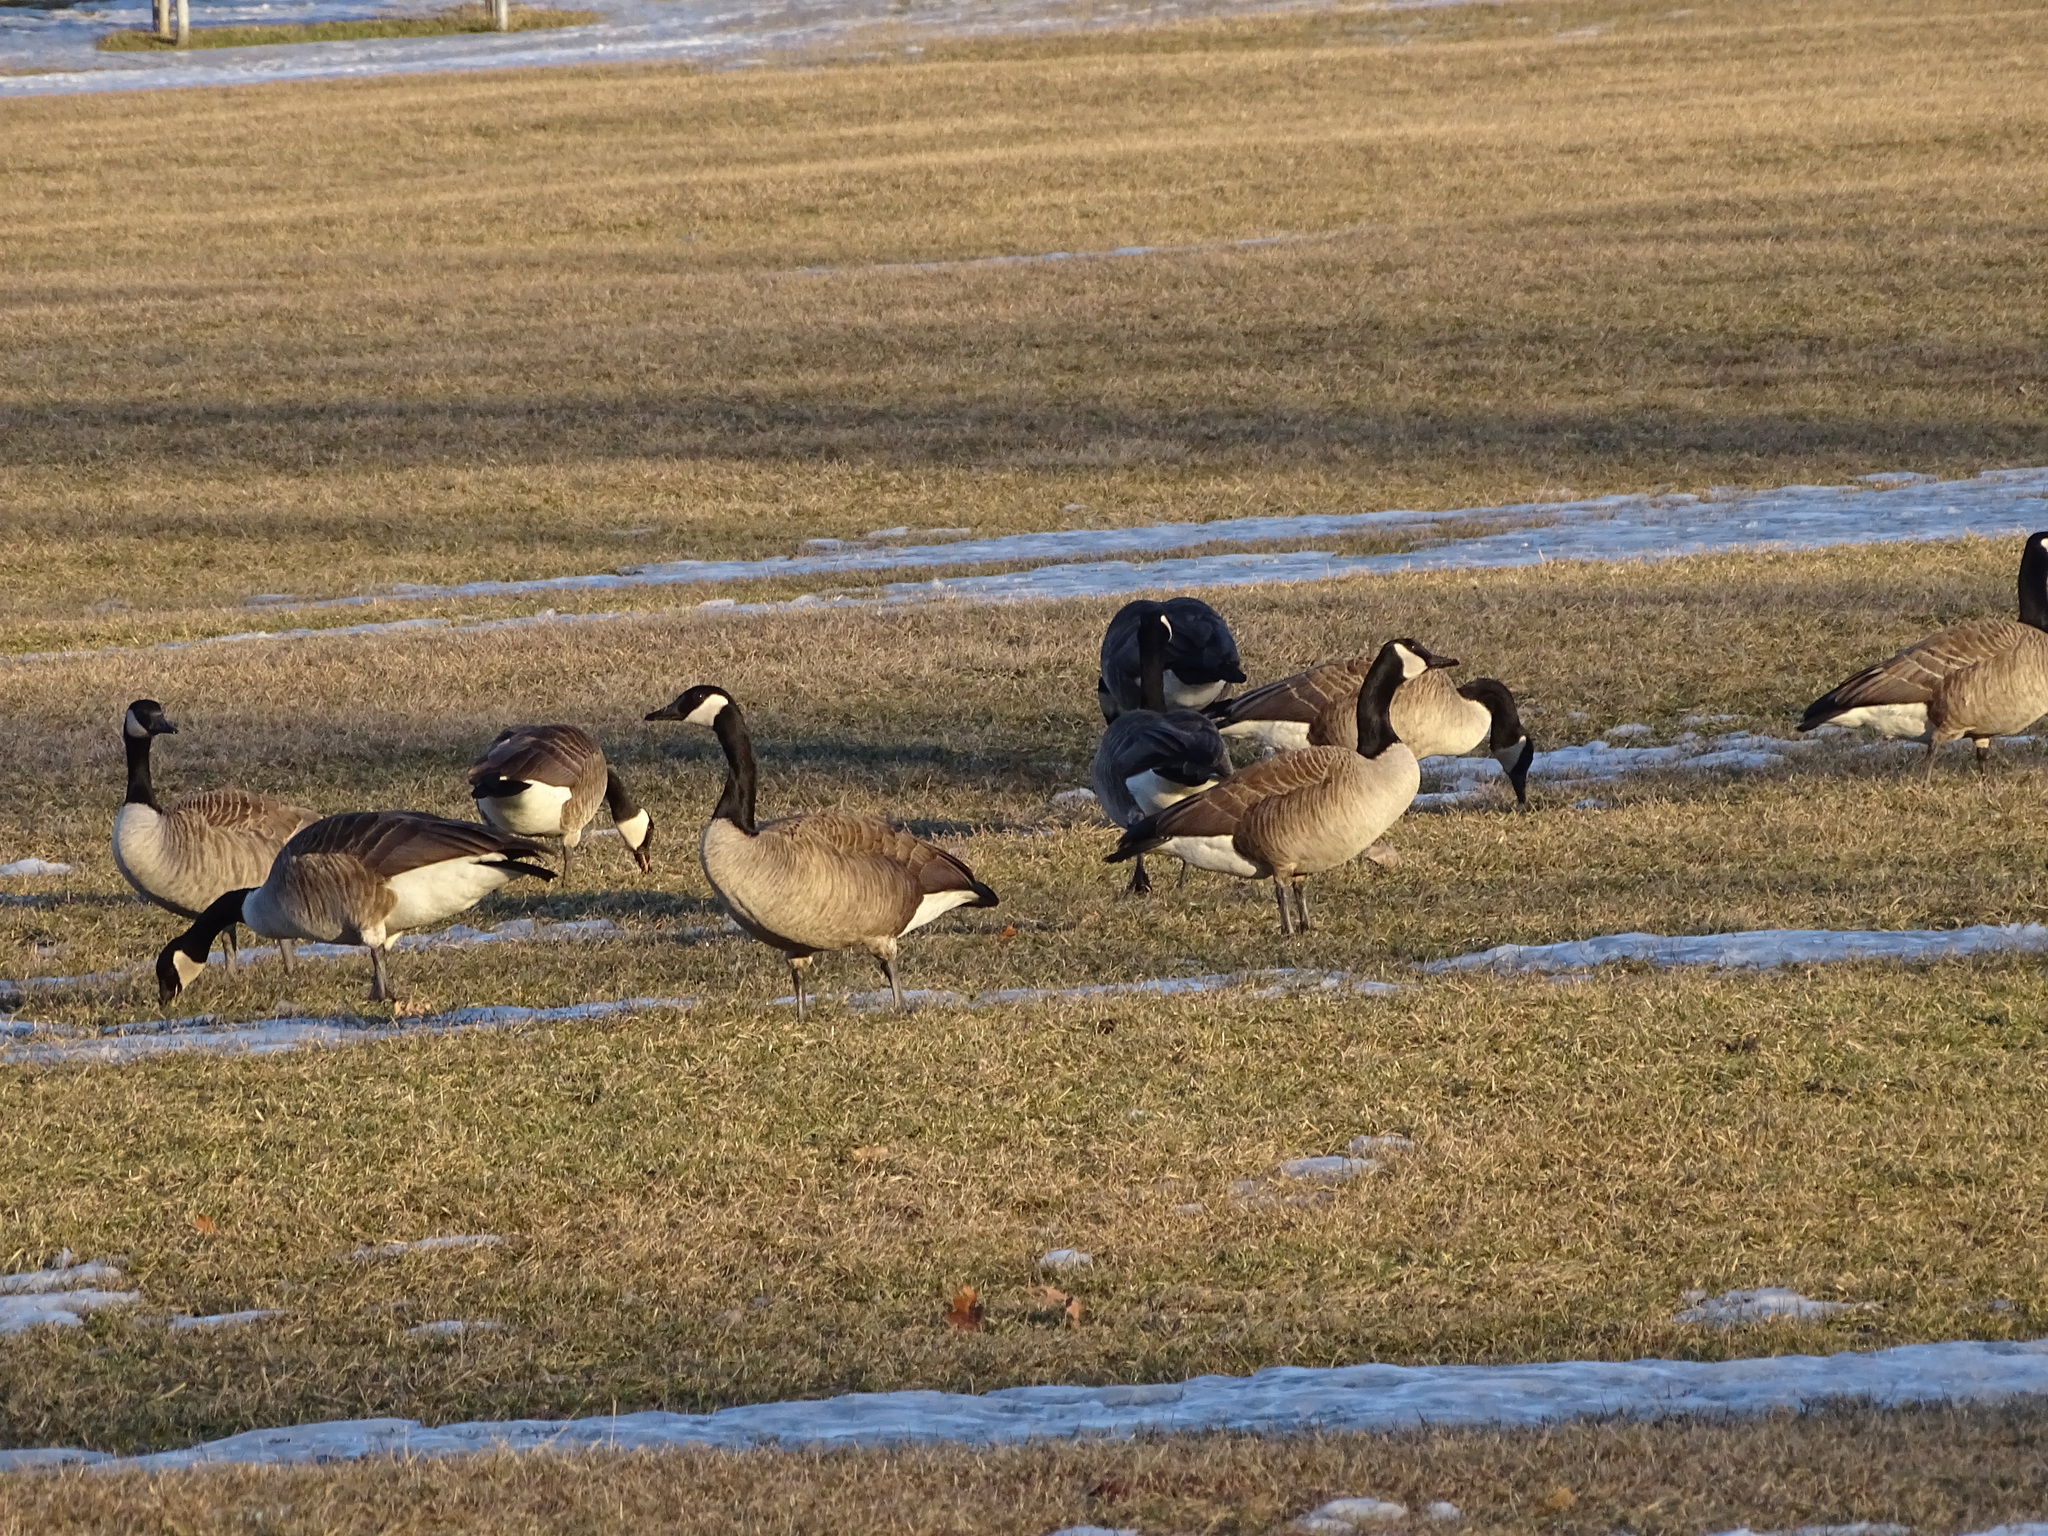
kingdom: Animalia
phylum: Chordata
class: Aves
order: Anseriformes
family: Anatidae
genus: Branta
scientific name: Branta canadensis
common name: Canada goose
